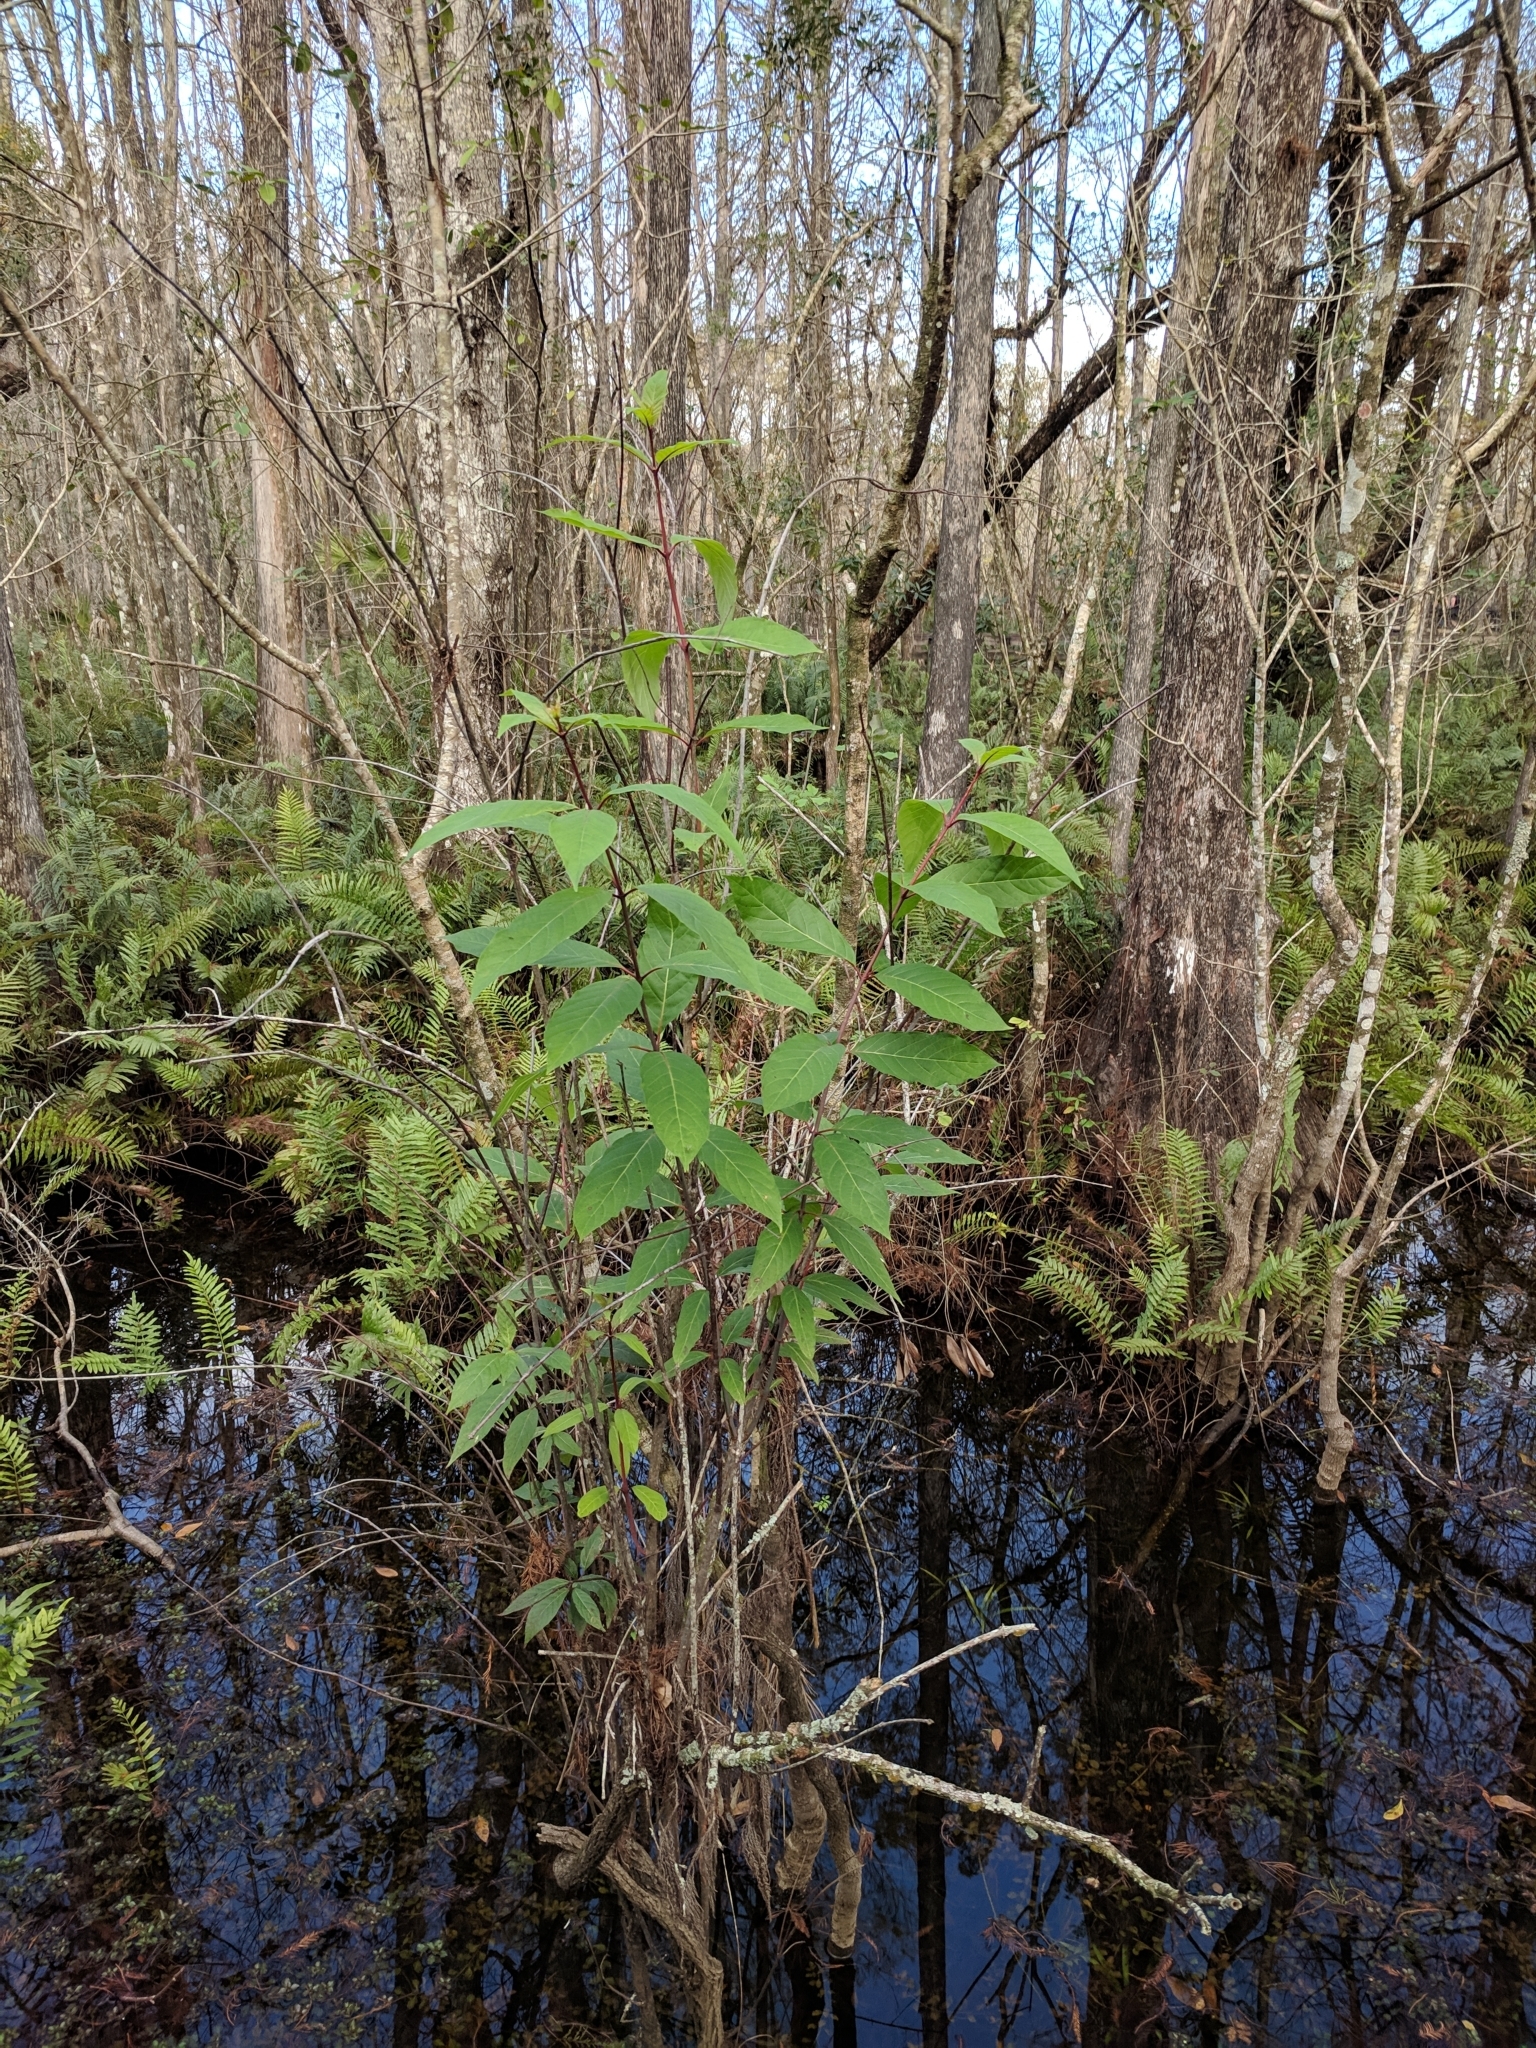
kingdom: Plantae
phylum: Tracheophyta
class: Magnoliopsida
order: Gentianales
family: Rubiaceae
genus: Cephalanthus
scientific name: Cephalanthus occidentalis
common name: Button-willow
